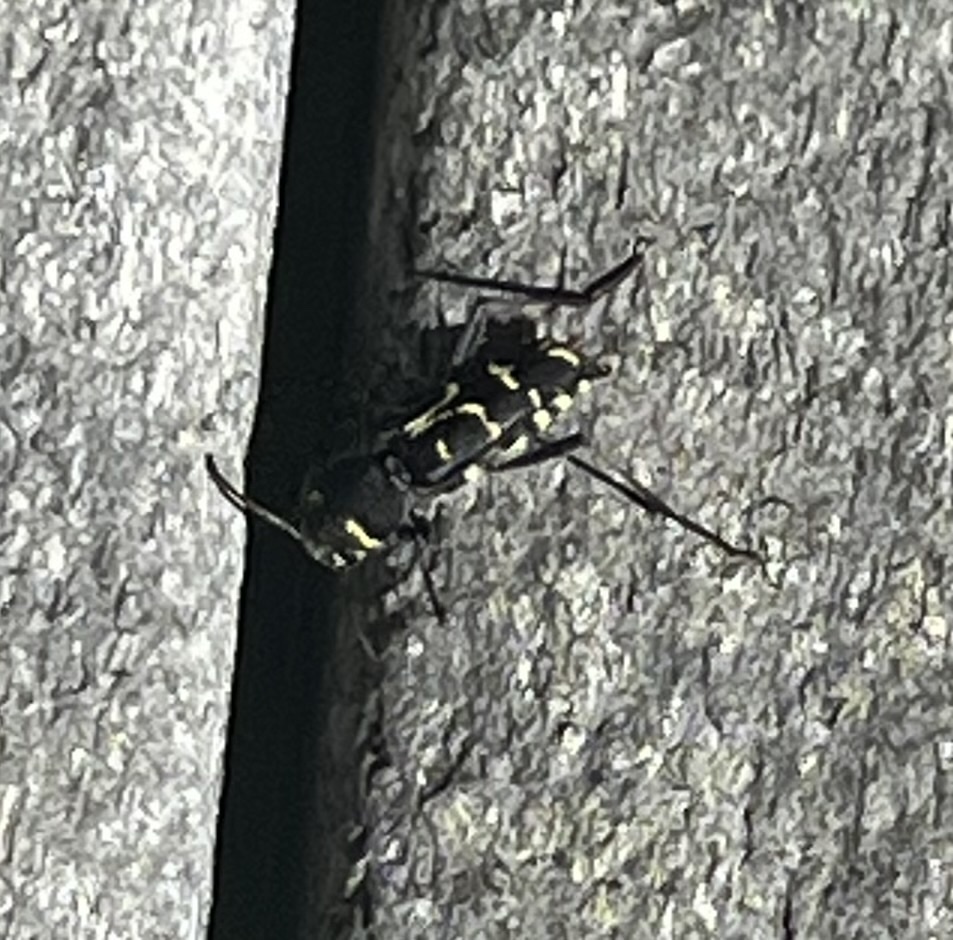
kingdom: Animalia
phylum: Arthropoda
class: Insecta
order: Coleoptera
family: Cerambycidae
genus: Xylotrechus
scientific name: Xylotrechus undulatus
